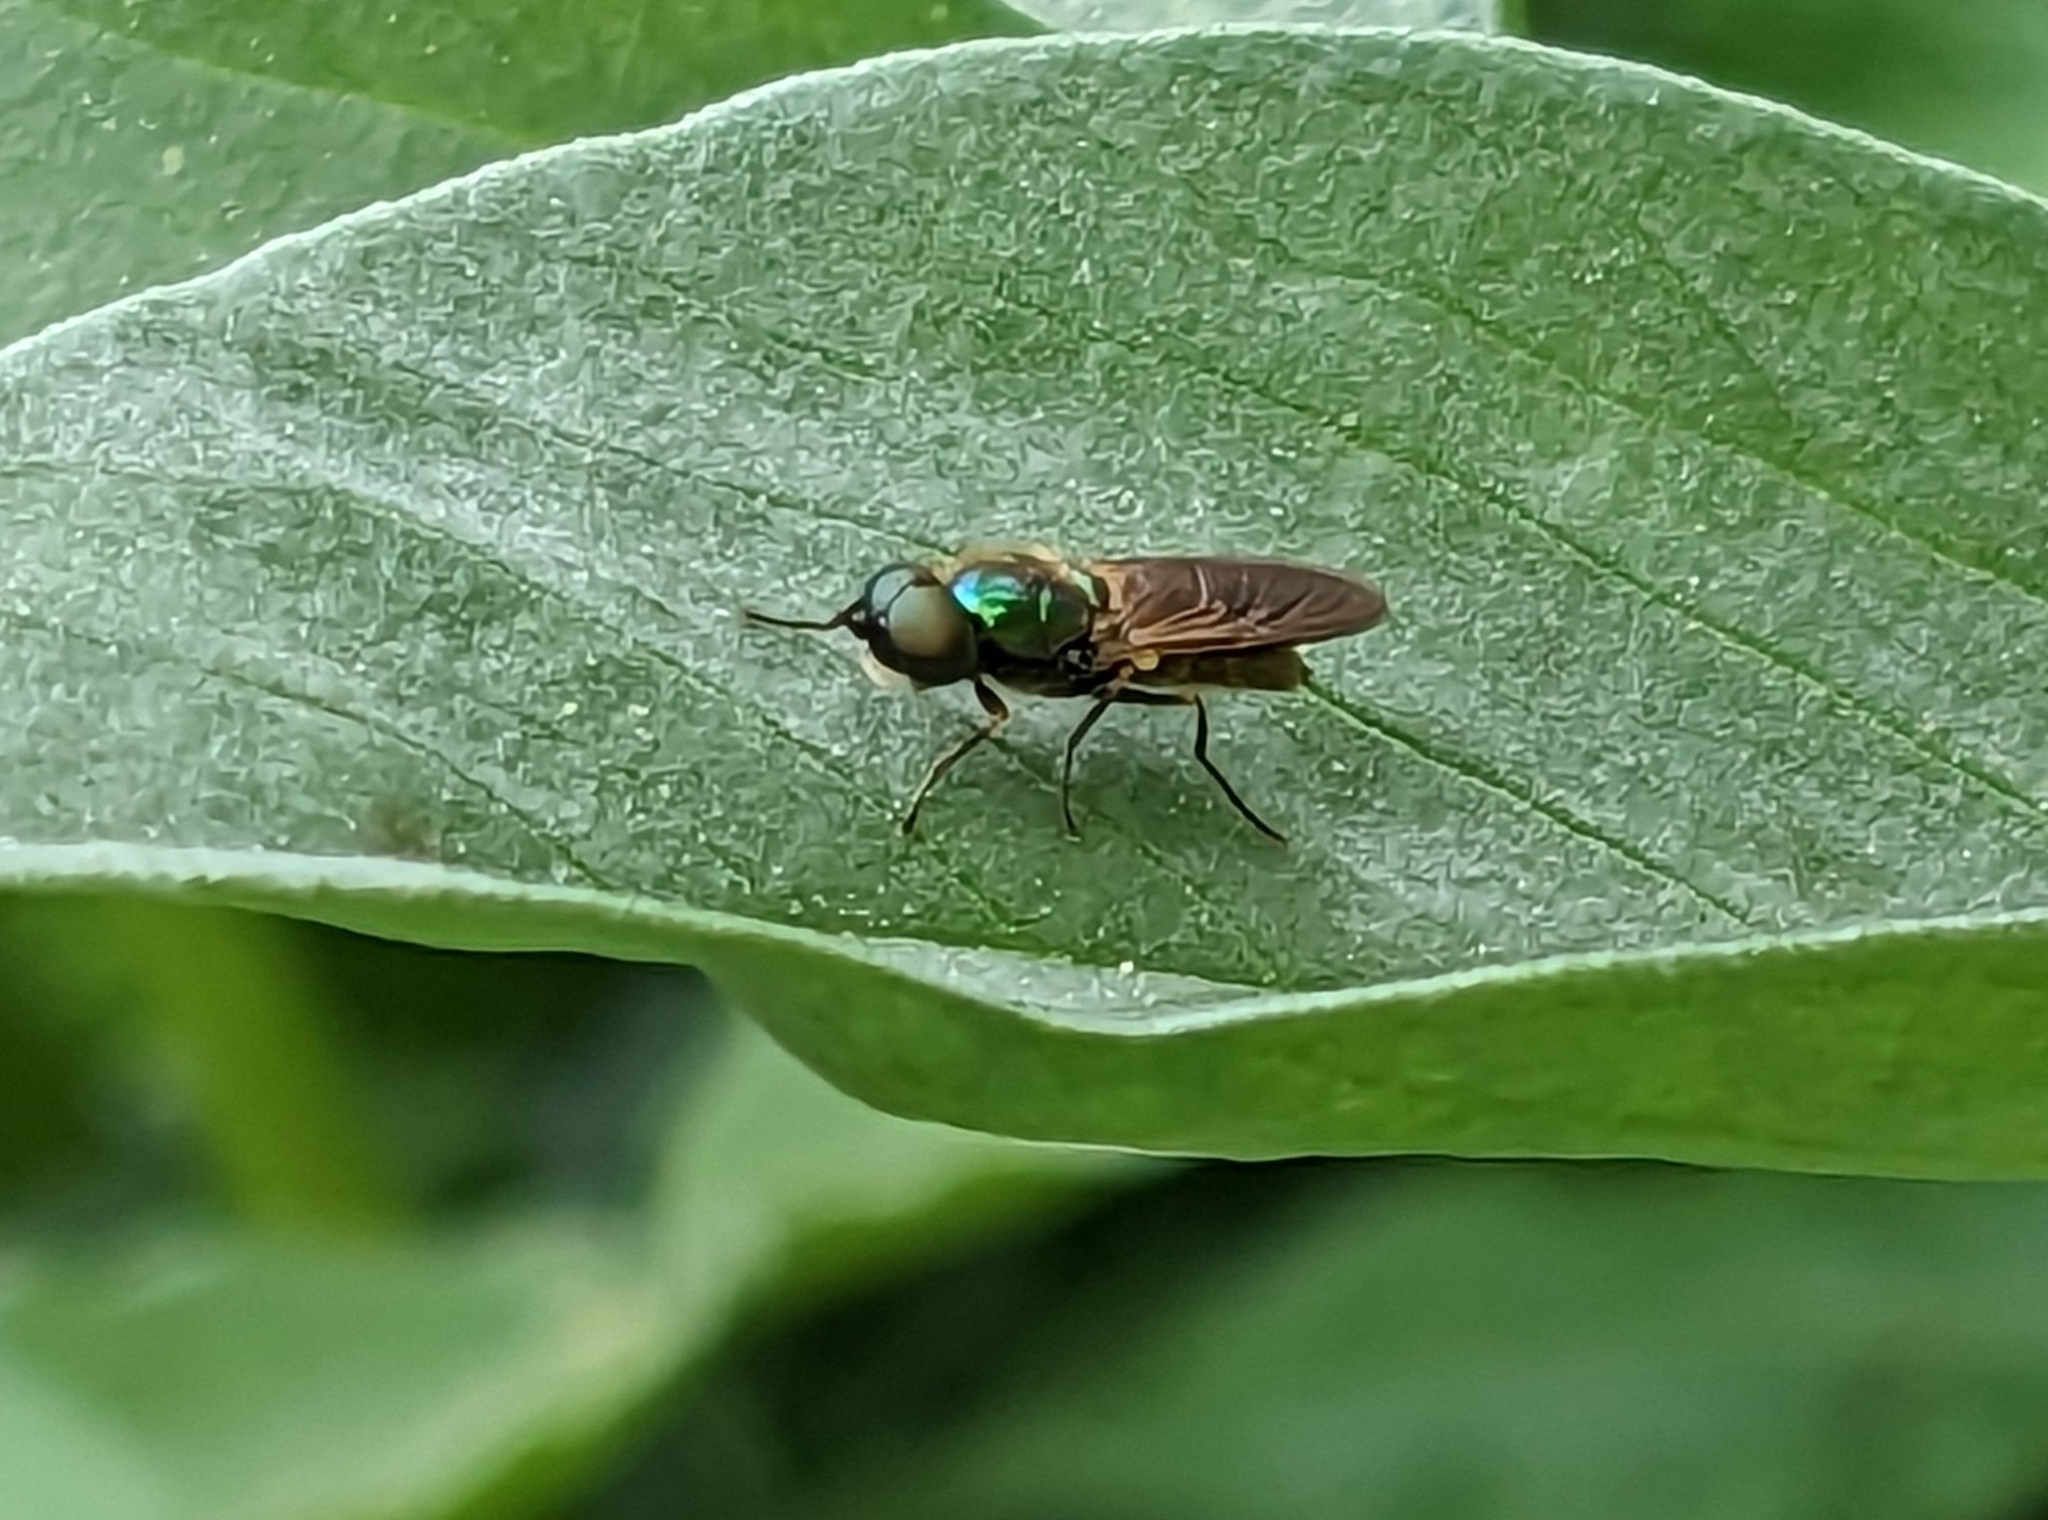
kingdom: Animalia
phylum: Arthropoda
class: Insecta
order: Diptera
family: Stratiomyidae
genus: Chloromyia
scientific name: Chloromyia formosa
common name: Soldier fly
